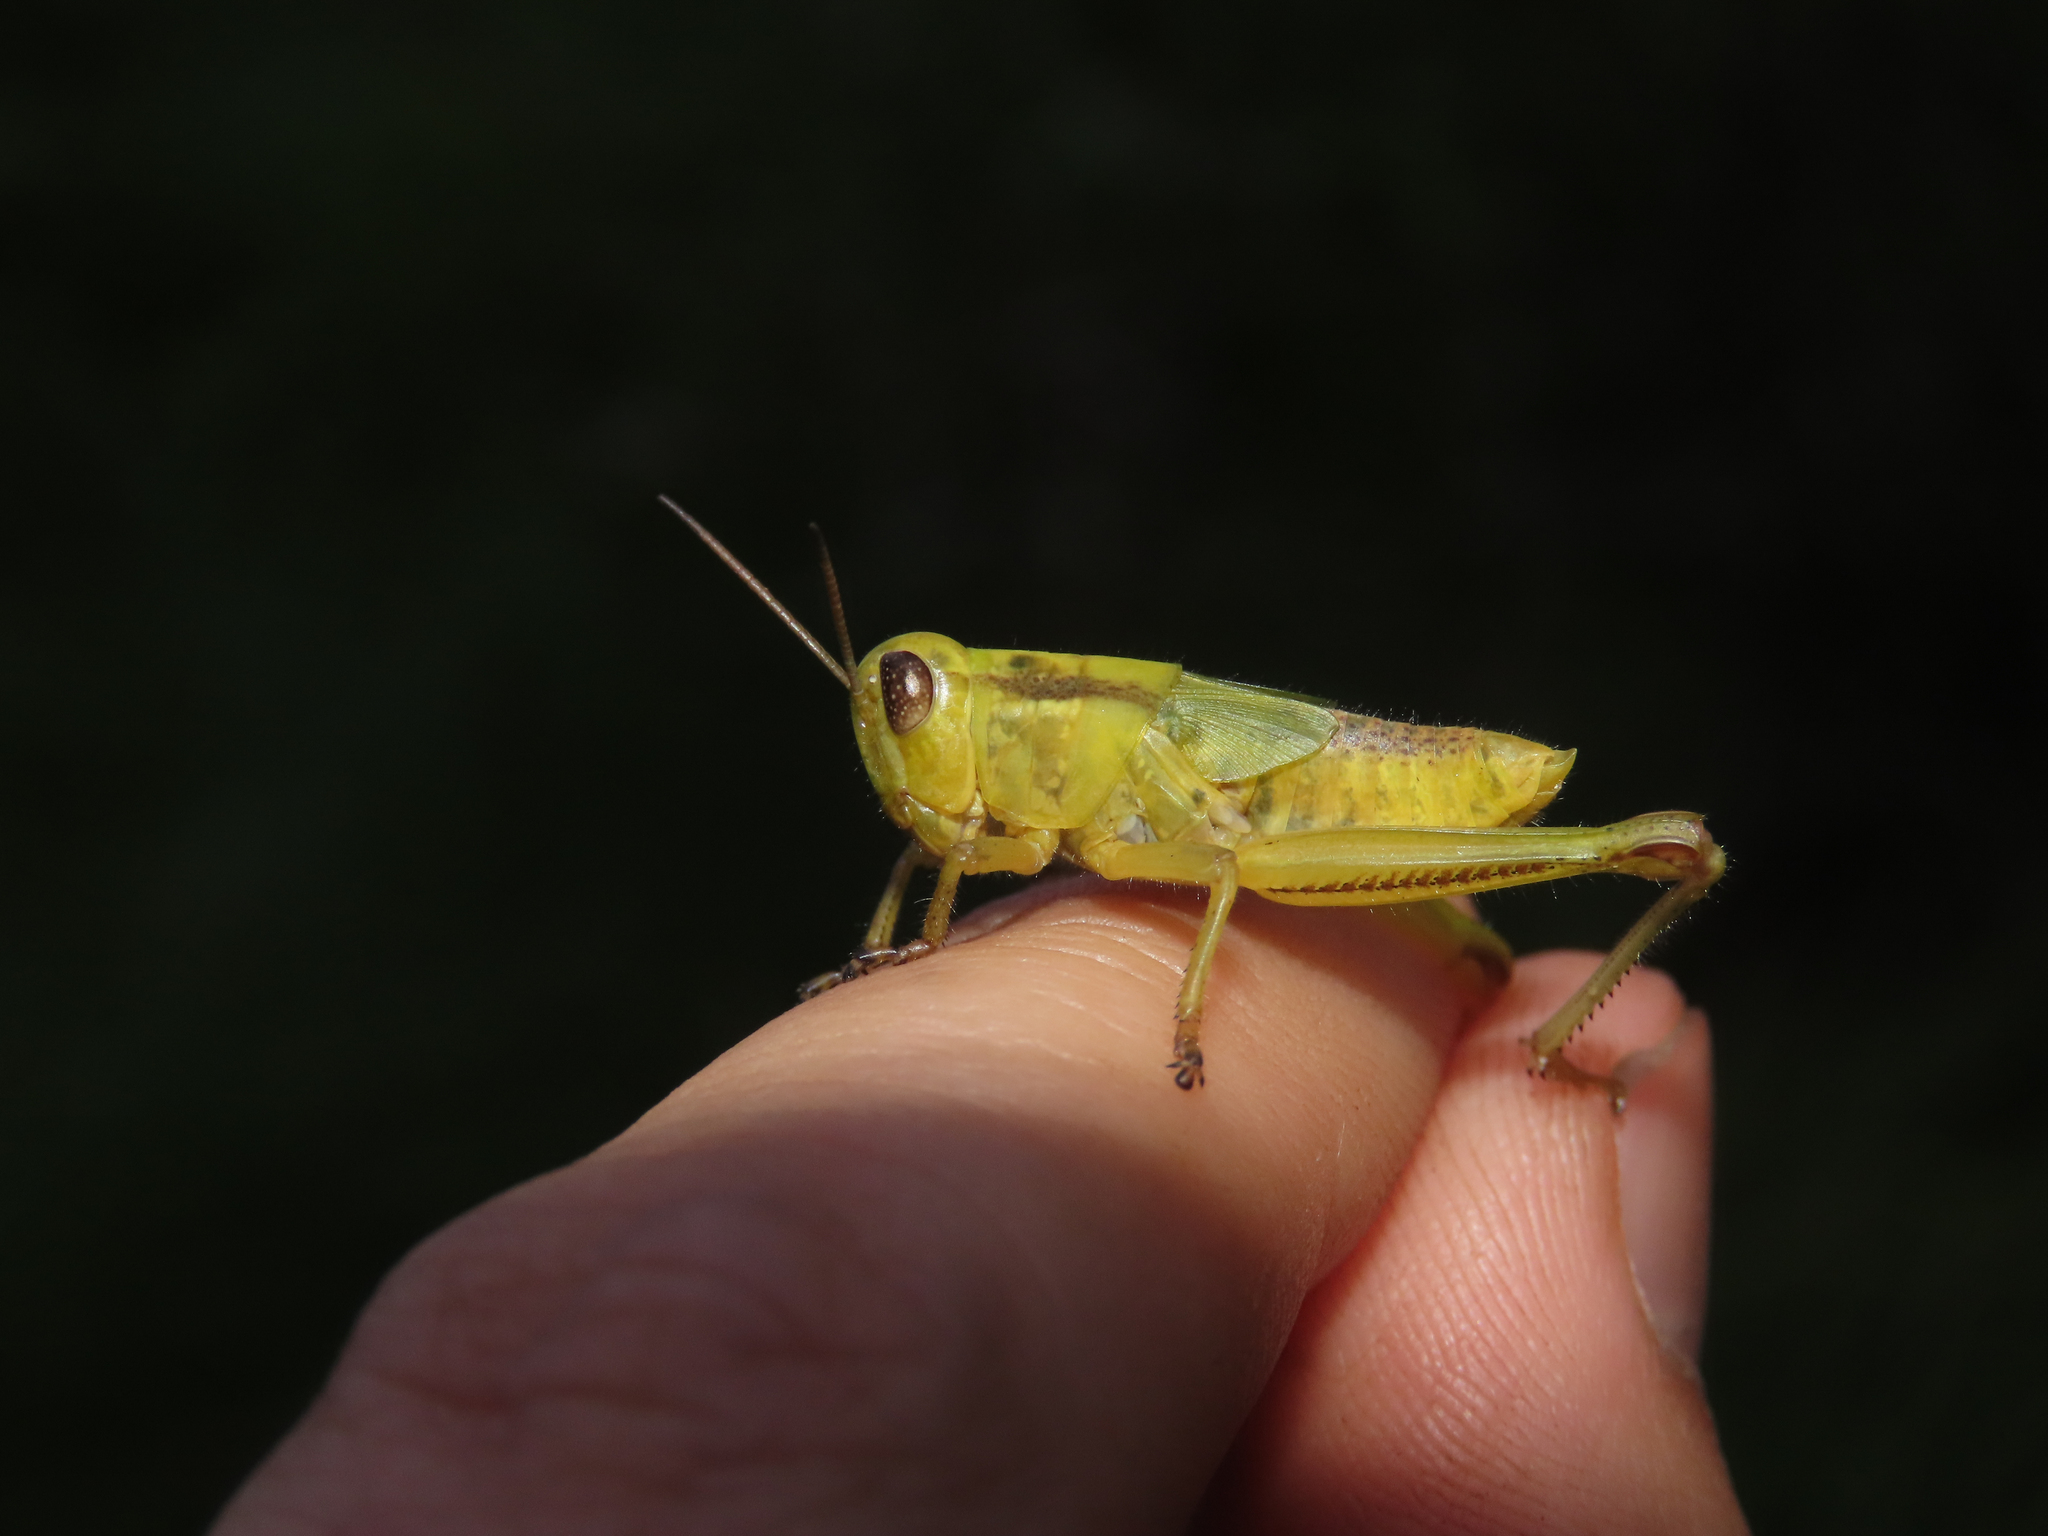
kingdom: Animalia
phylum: Arthropoda
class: Insecta
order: Orthoptera
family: Acrididae
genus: Melanoplus
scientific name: Melanoplus bivittatus
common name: Two-striped grasshopper
